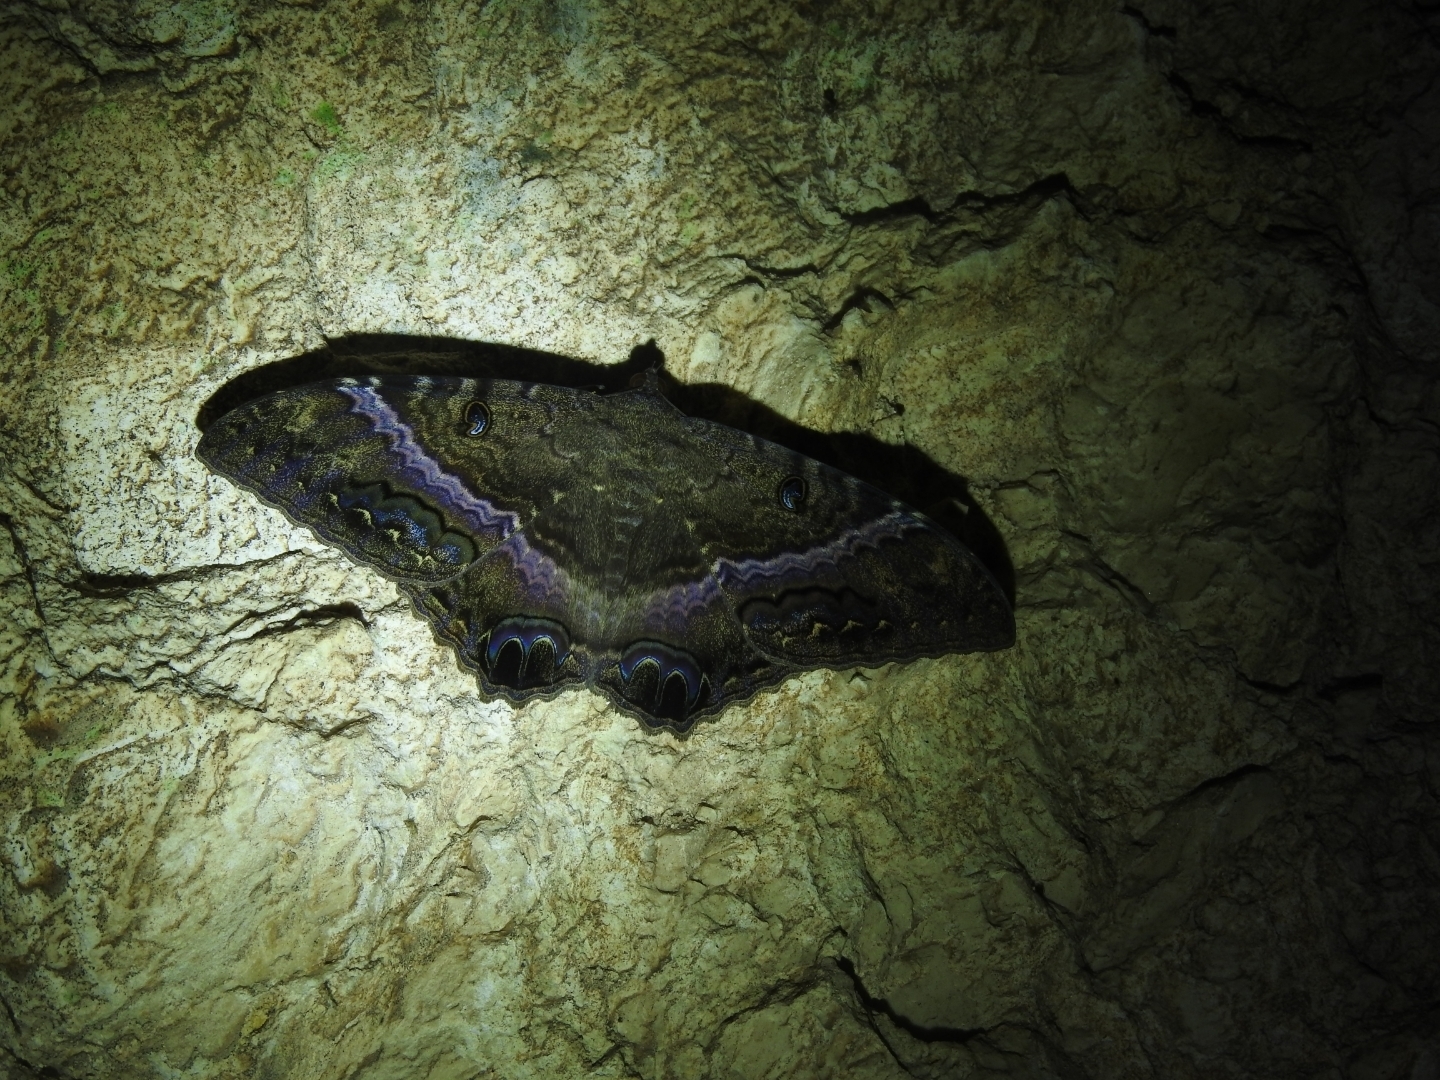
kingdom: Animalia
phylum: Arthropoda
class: Insecta
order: Lepidoptera
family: Erebidae
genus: Ascalapha
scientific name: Ascalapha odorata
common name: Black witch
